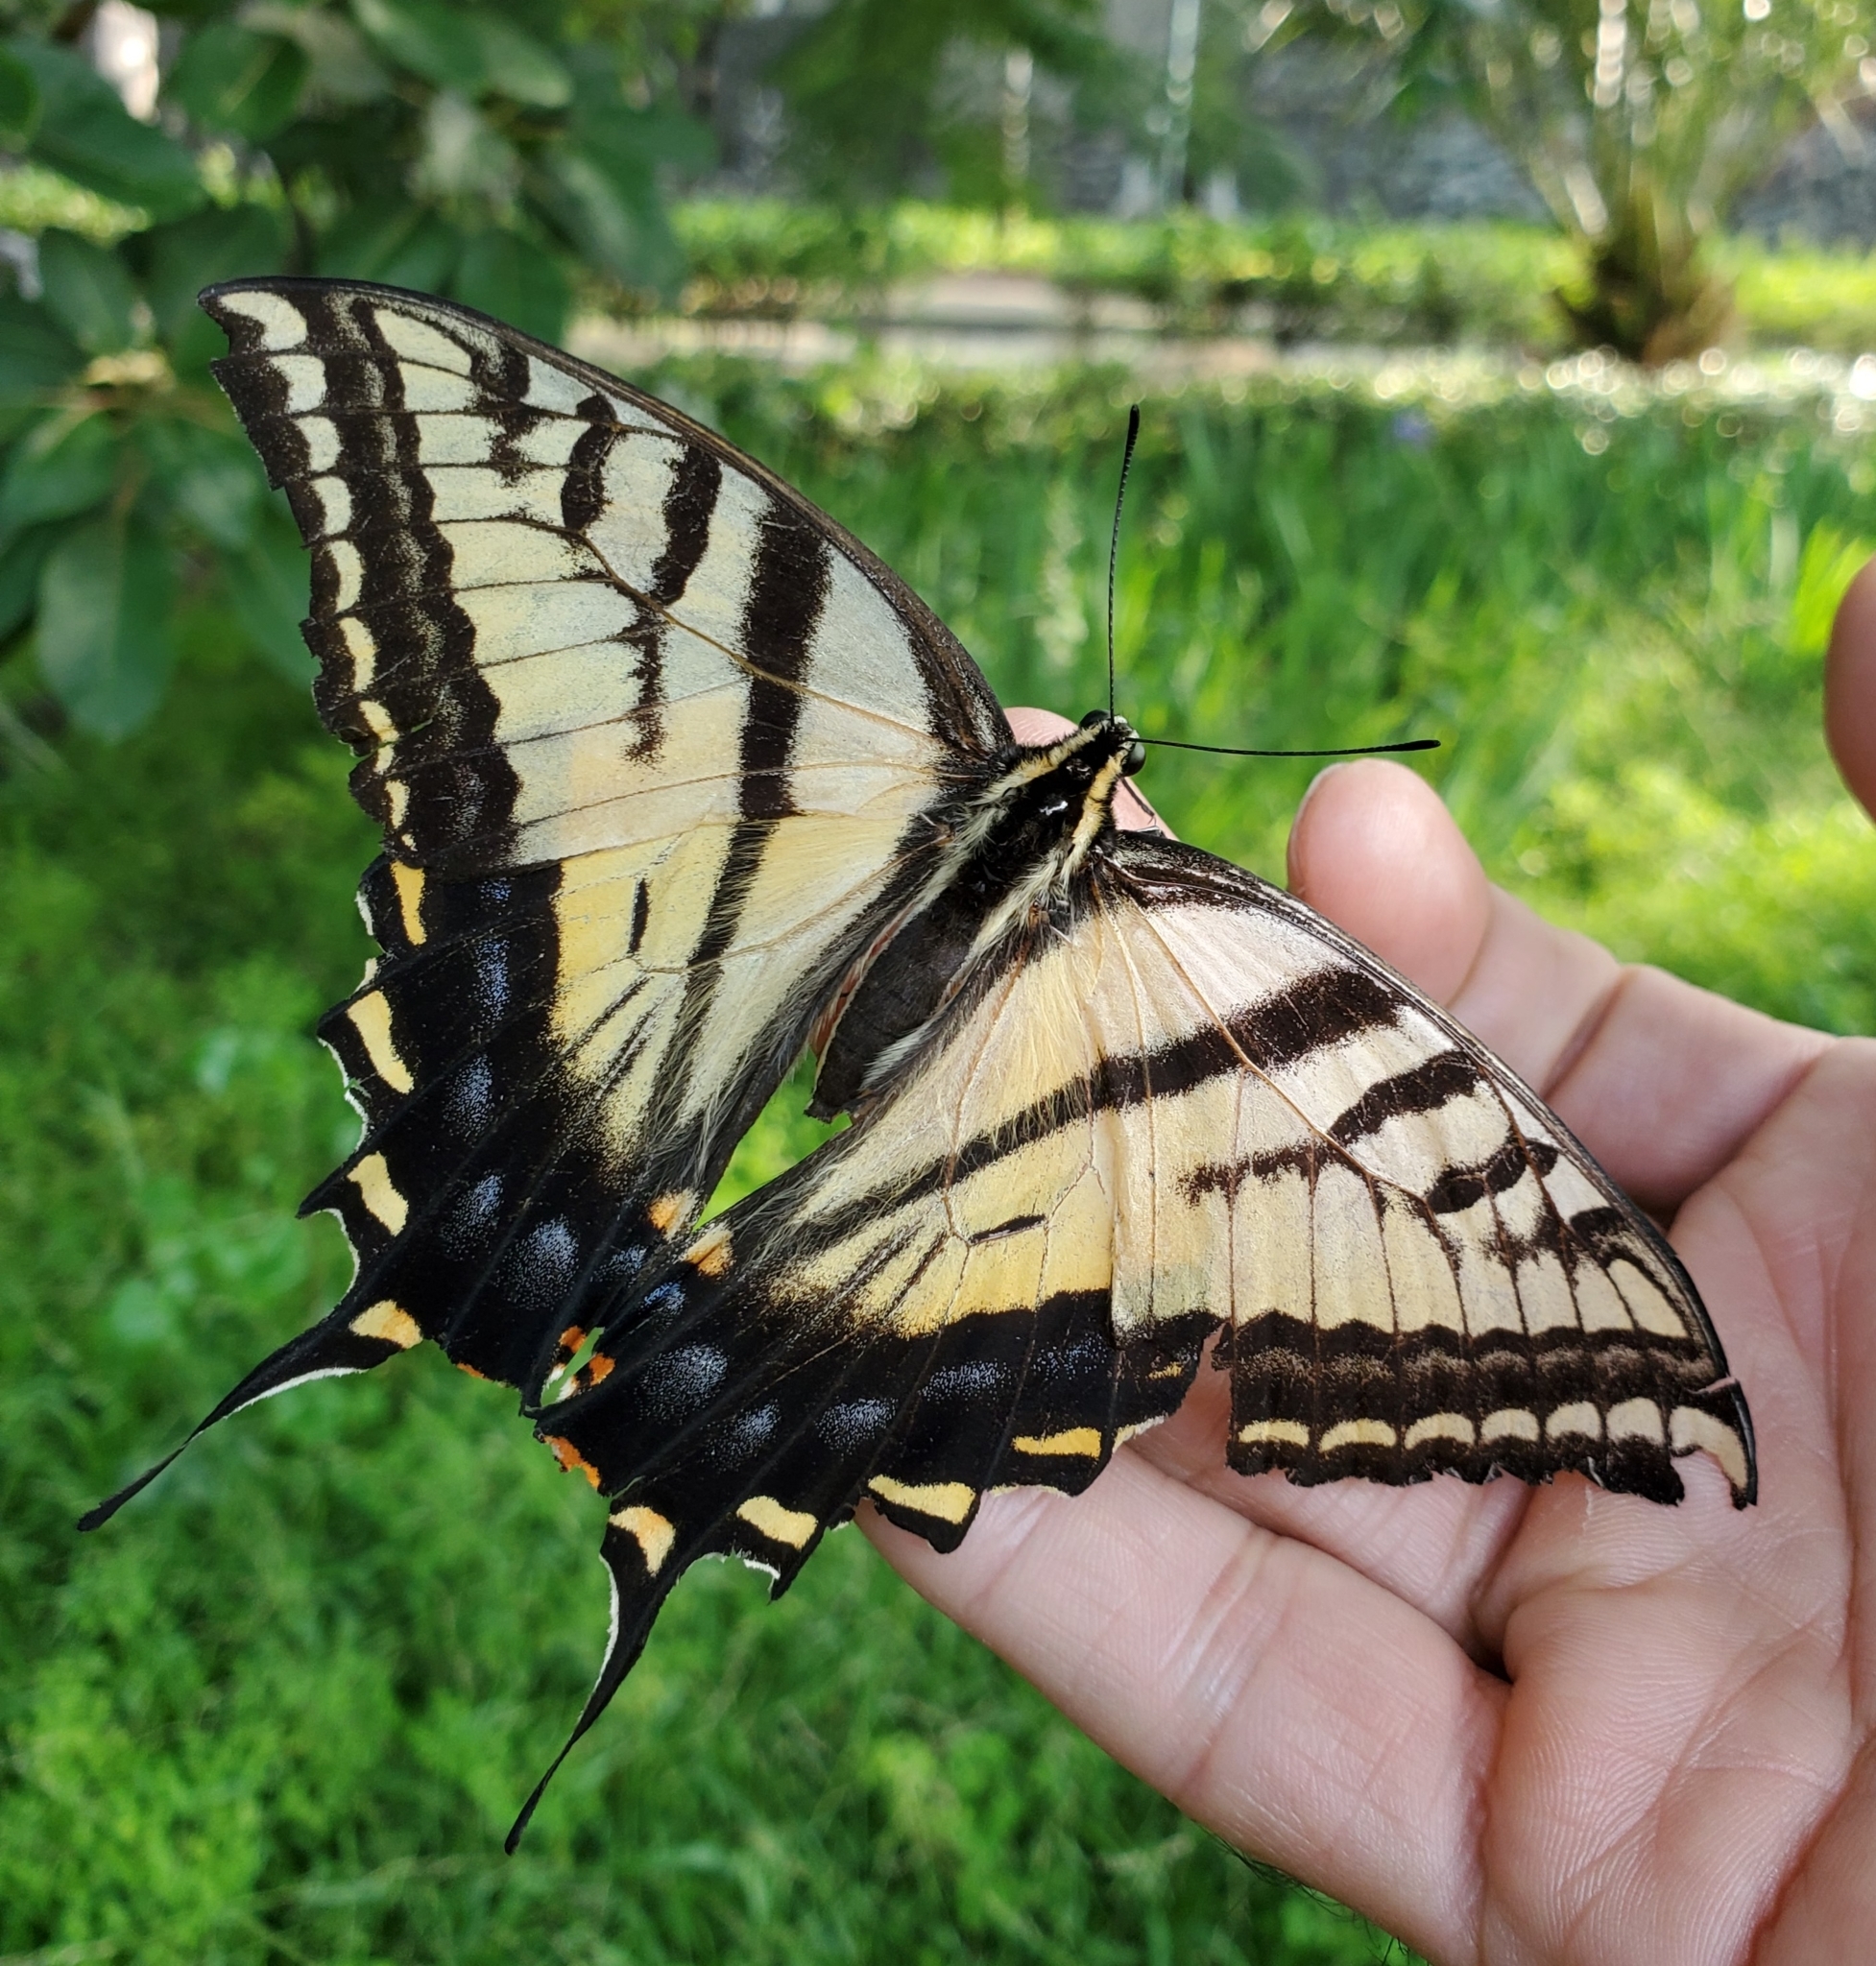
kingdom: Animalia
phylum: Arthropoda
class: Insecta
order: Lepidoptera
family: Papilionidae
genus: Papilio
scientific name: Papilio multicaudata
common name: Two-tailed tiger swallowtail
